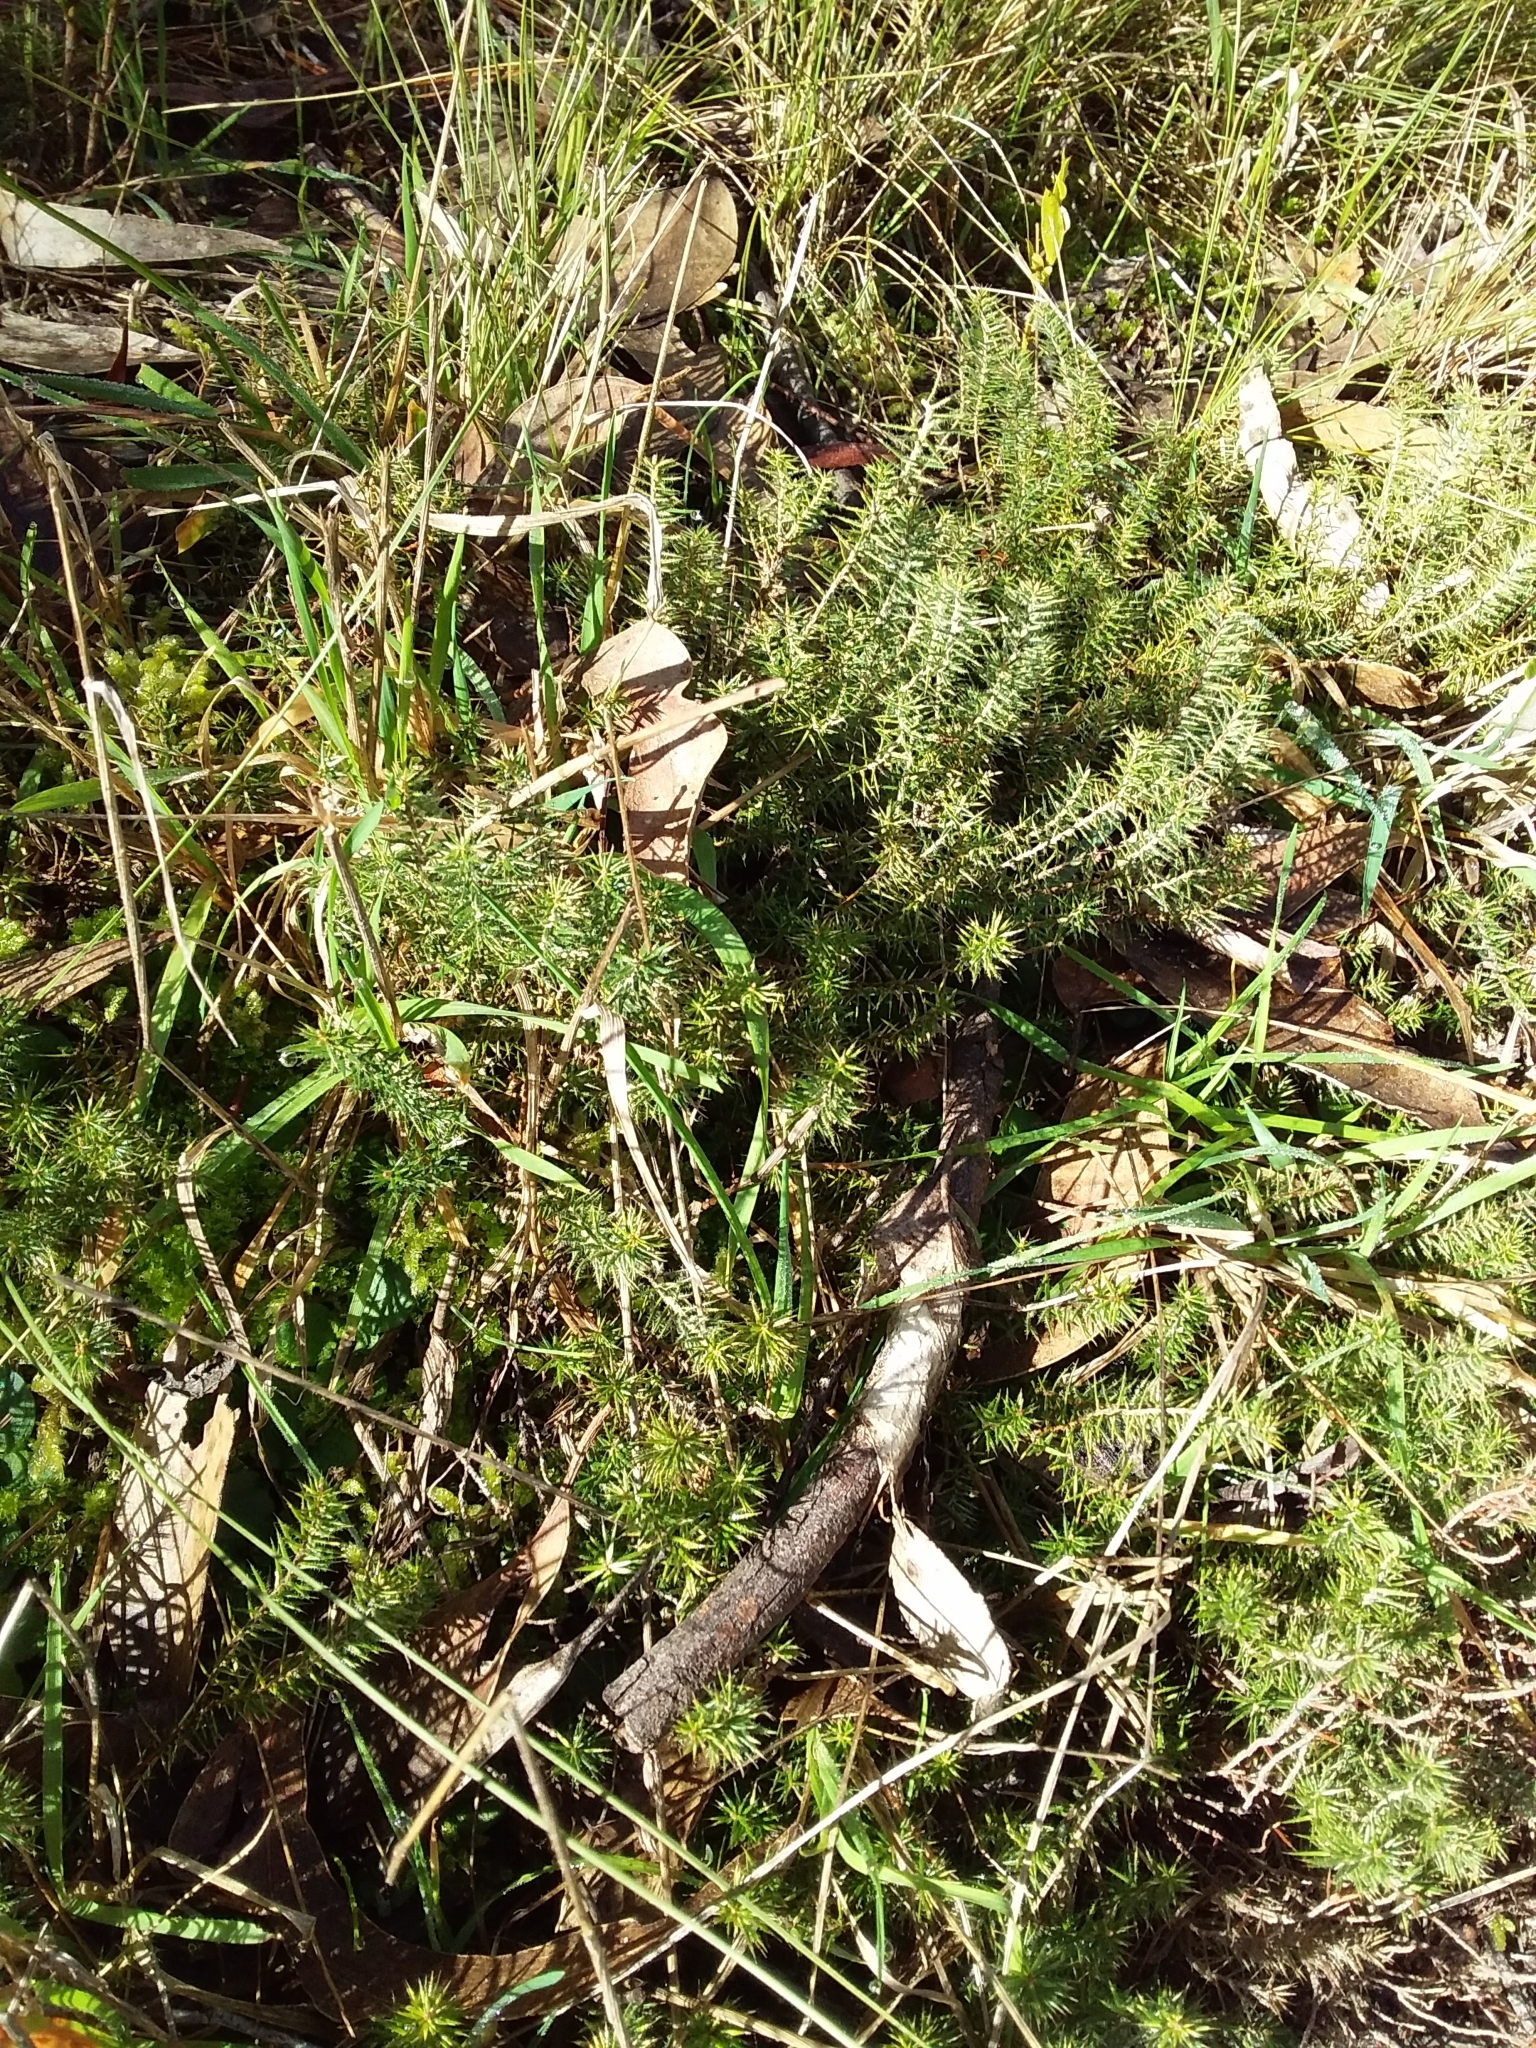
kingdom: Plantae
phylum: Tracheophyta
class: Magnoliopsida
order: Ericales
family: Ericaceae
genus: Acrotriche
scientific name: Acrotriche serrulata
